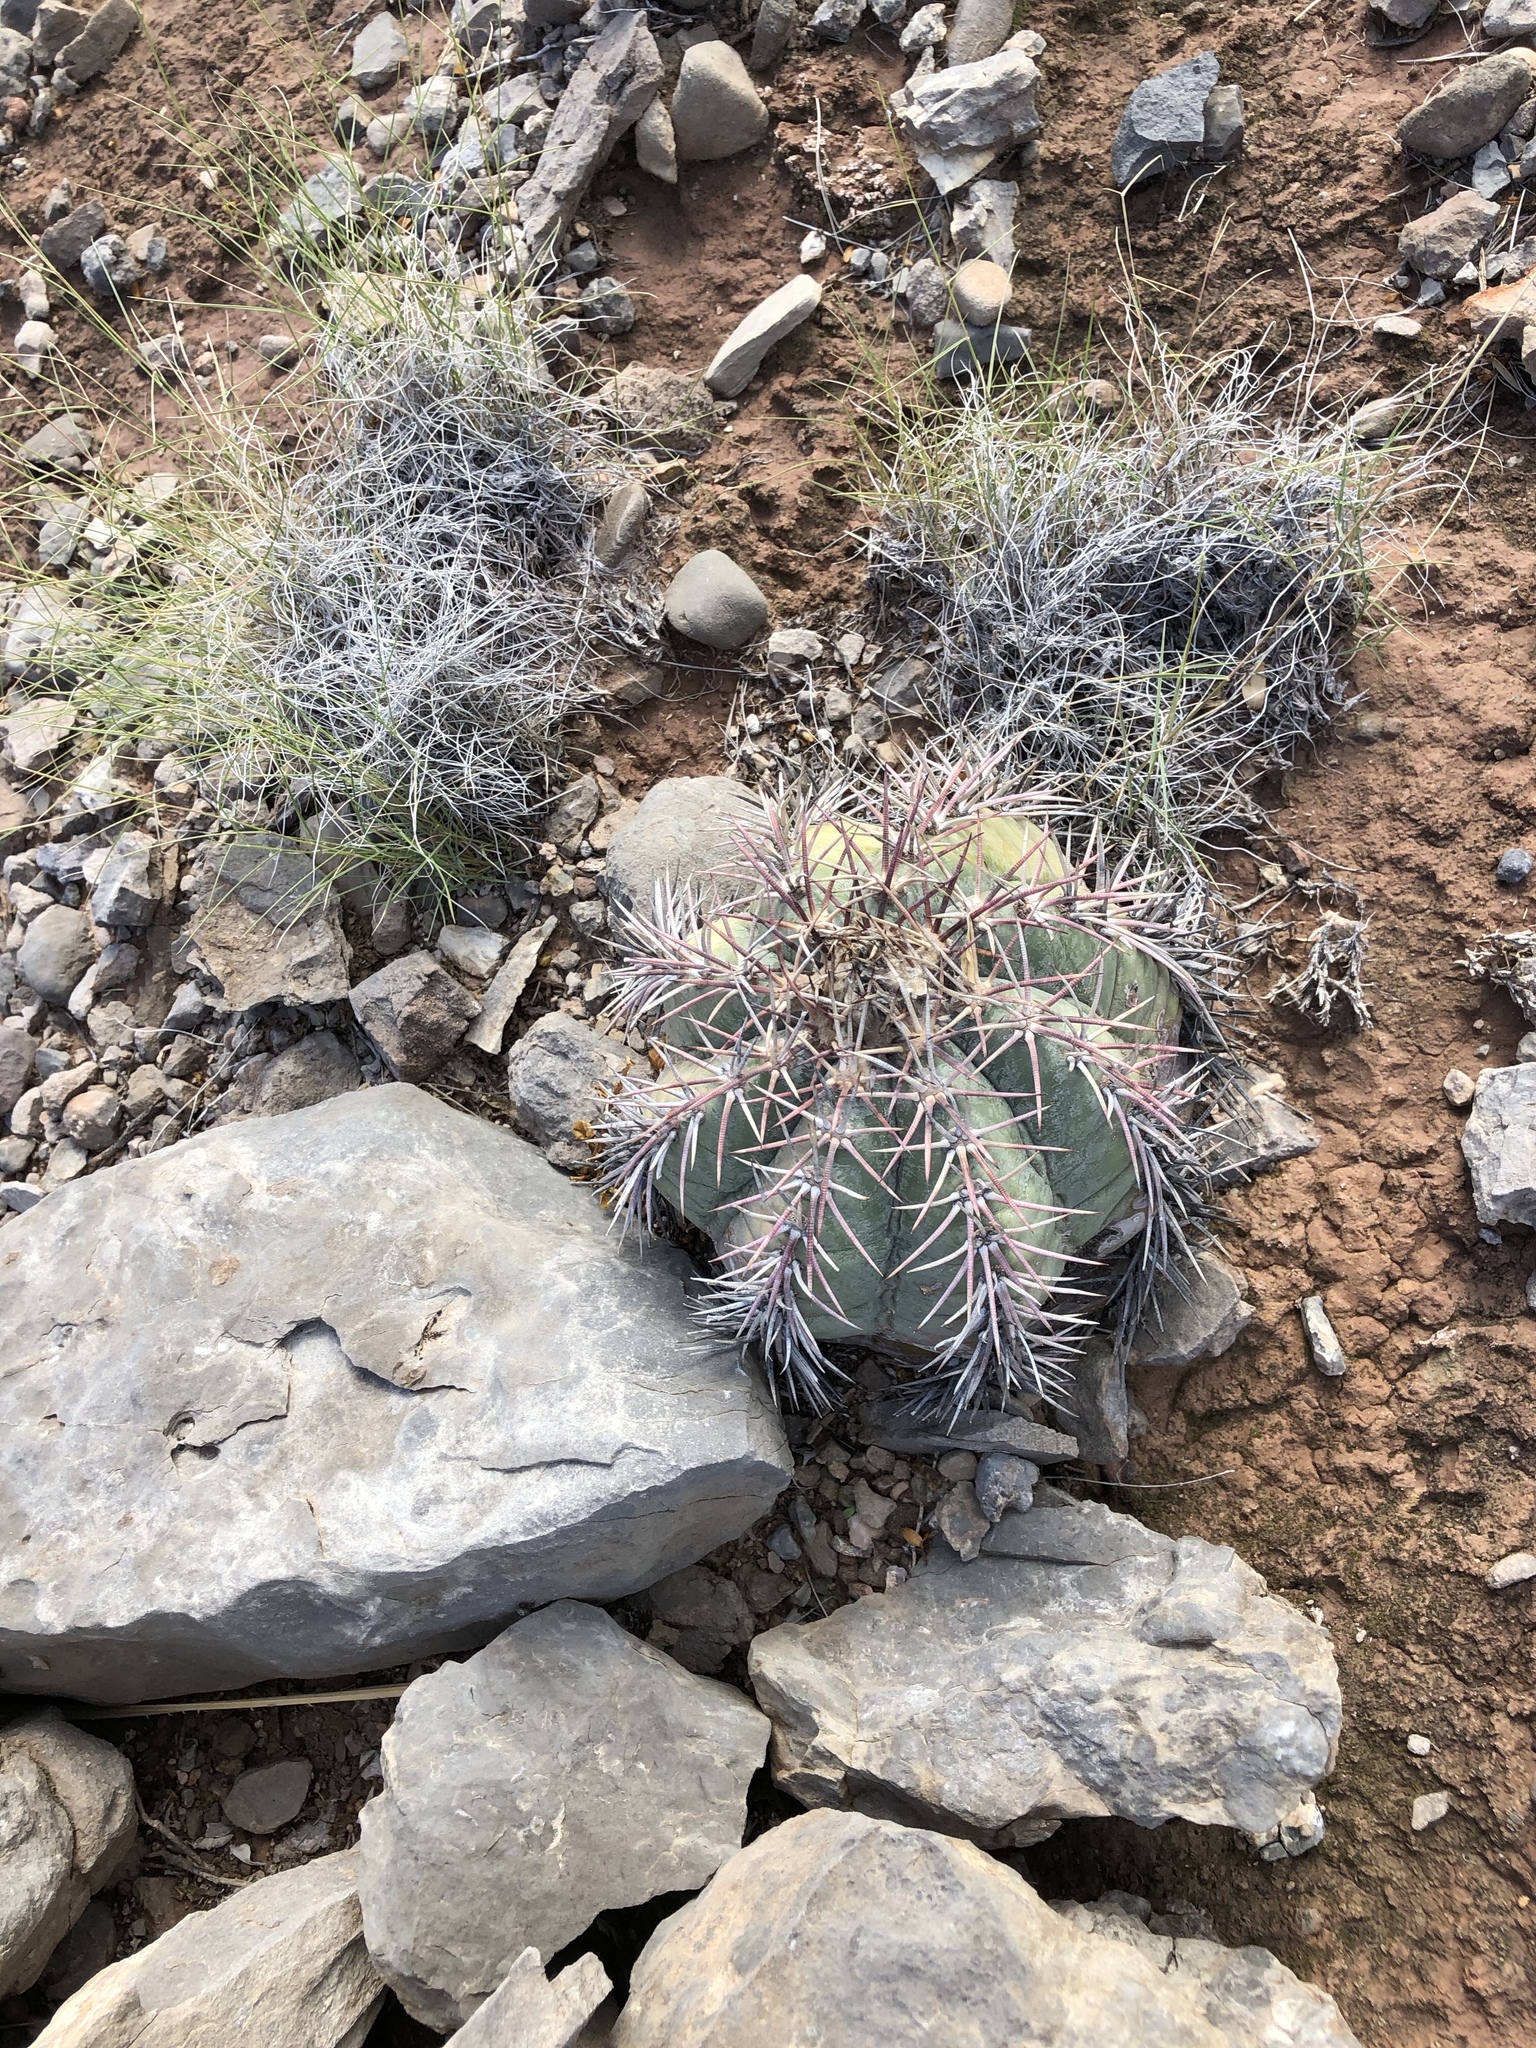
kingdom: Plantae
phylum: Tracheophyta
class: Magnoliopsida
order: Caryophyllales
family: Cactaceae
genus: Echinocactus
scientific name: Echinocactus horizonthalonius
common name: Devilshead
